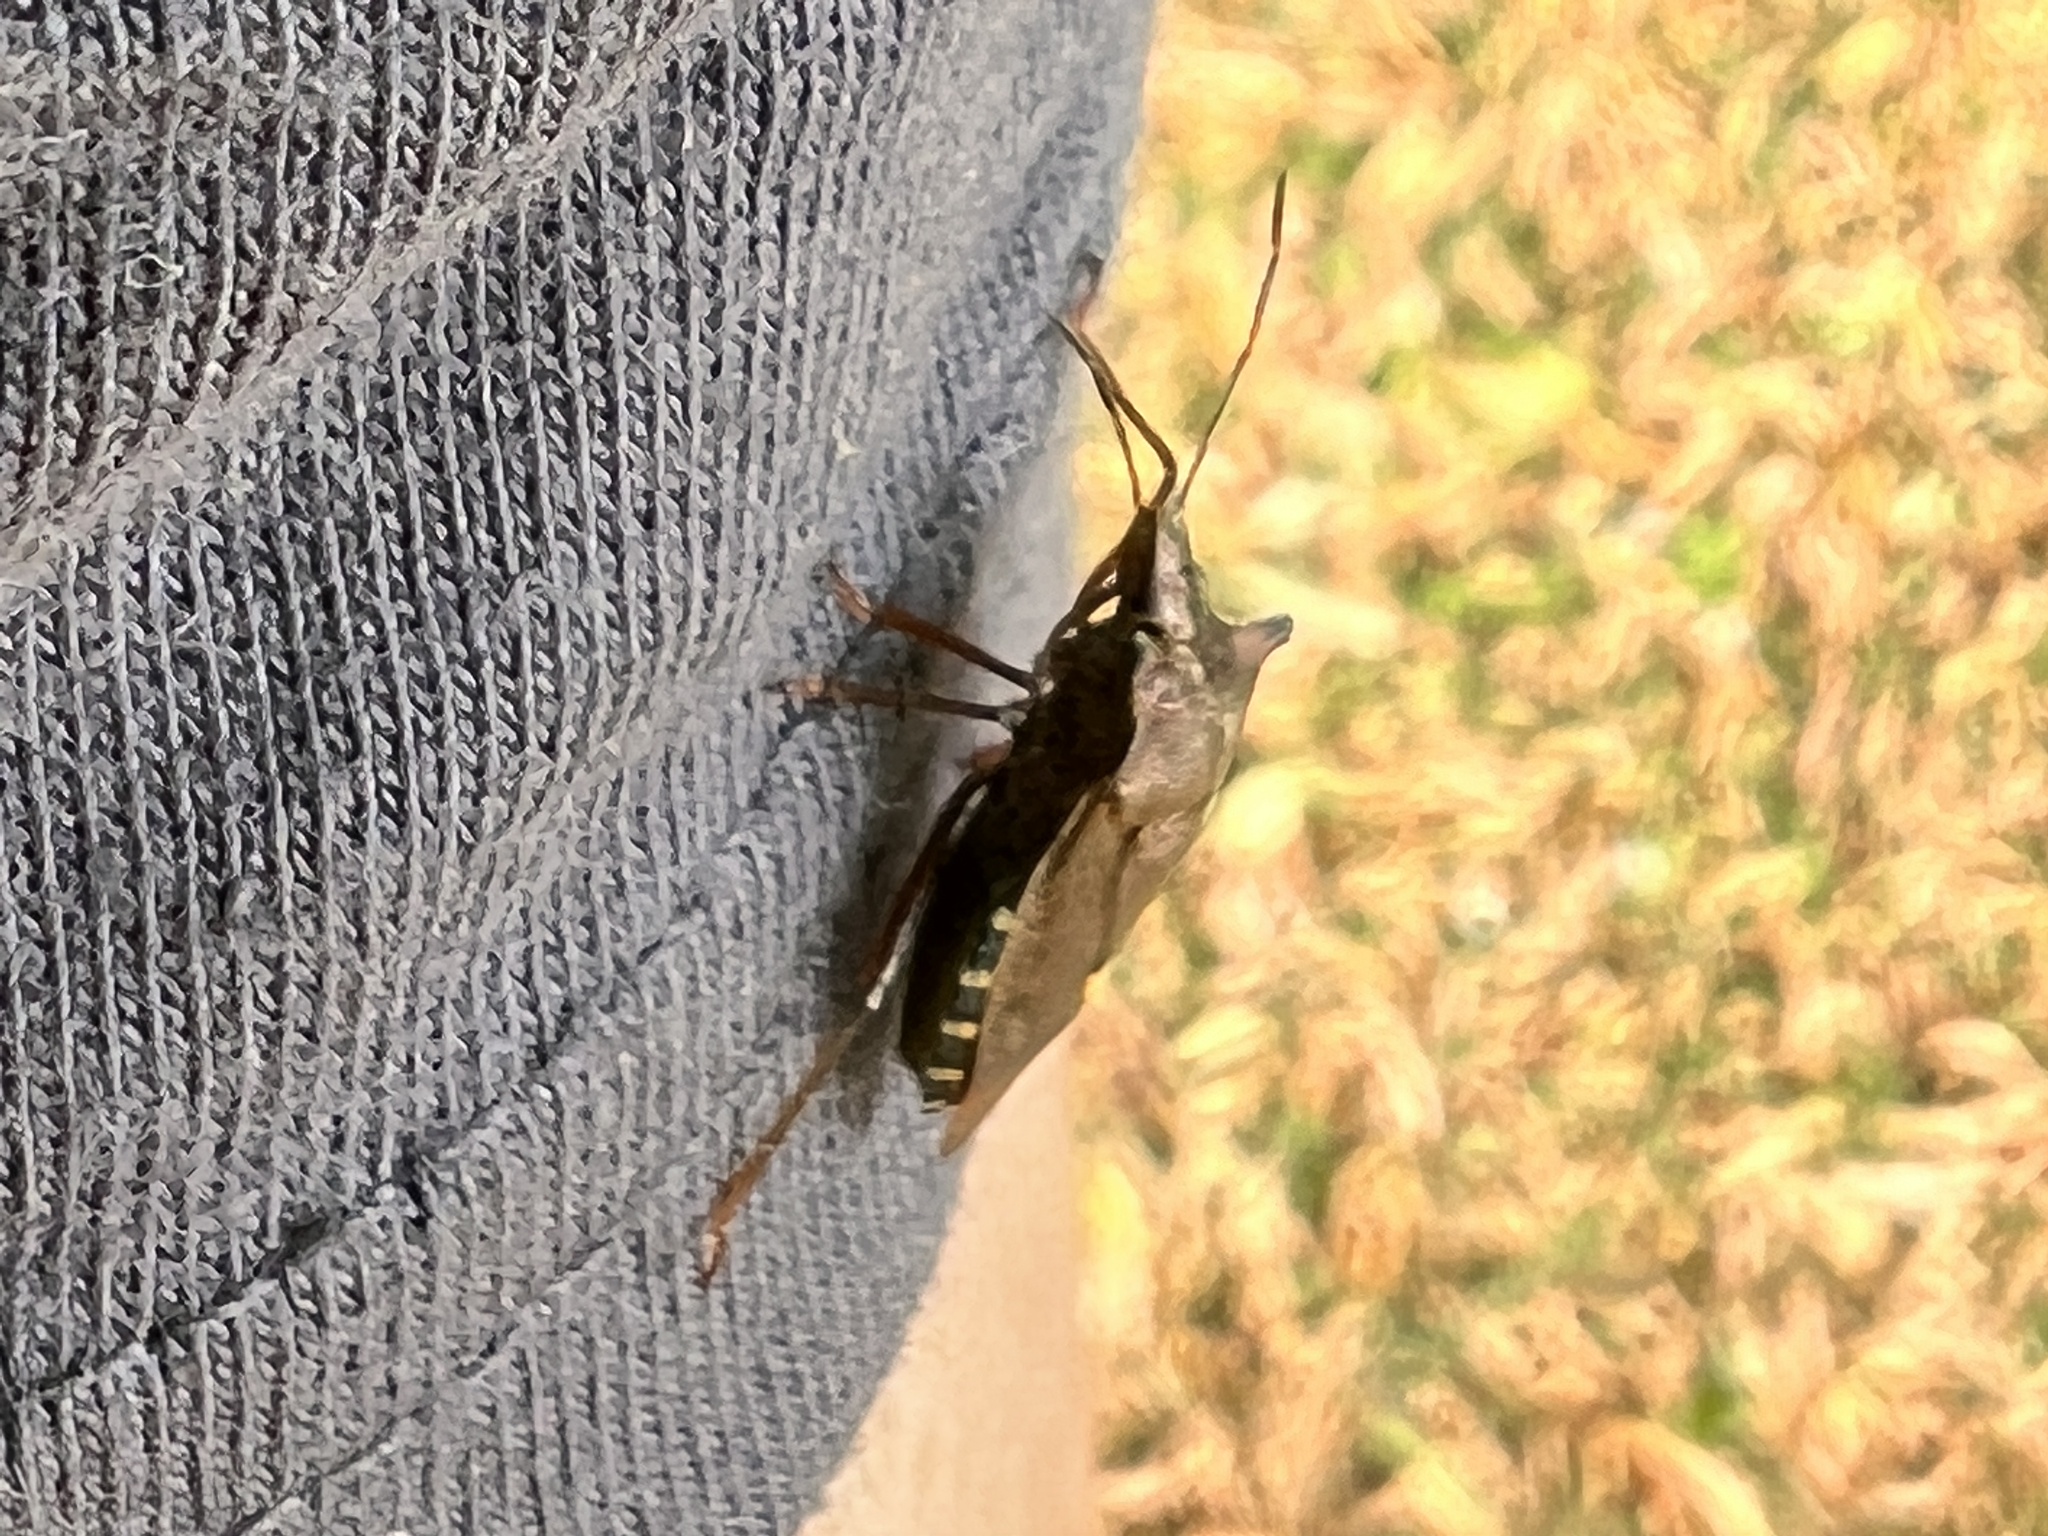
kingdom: Animalia
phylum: Arthropoda
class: Insecta
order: Hemiptera
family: Pentatomidae
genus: Pentatoma
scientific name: Pentatoma rufipes
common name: Forest bug
